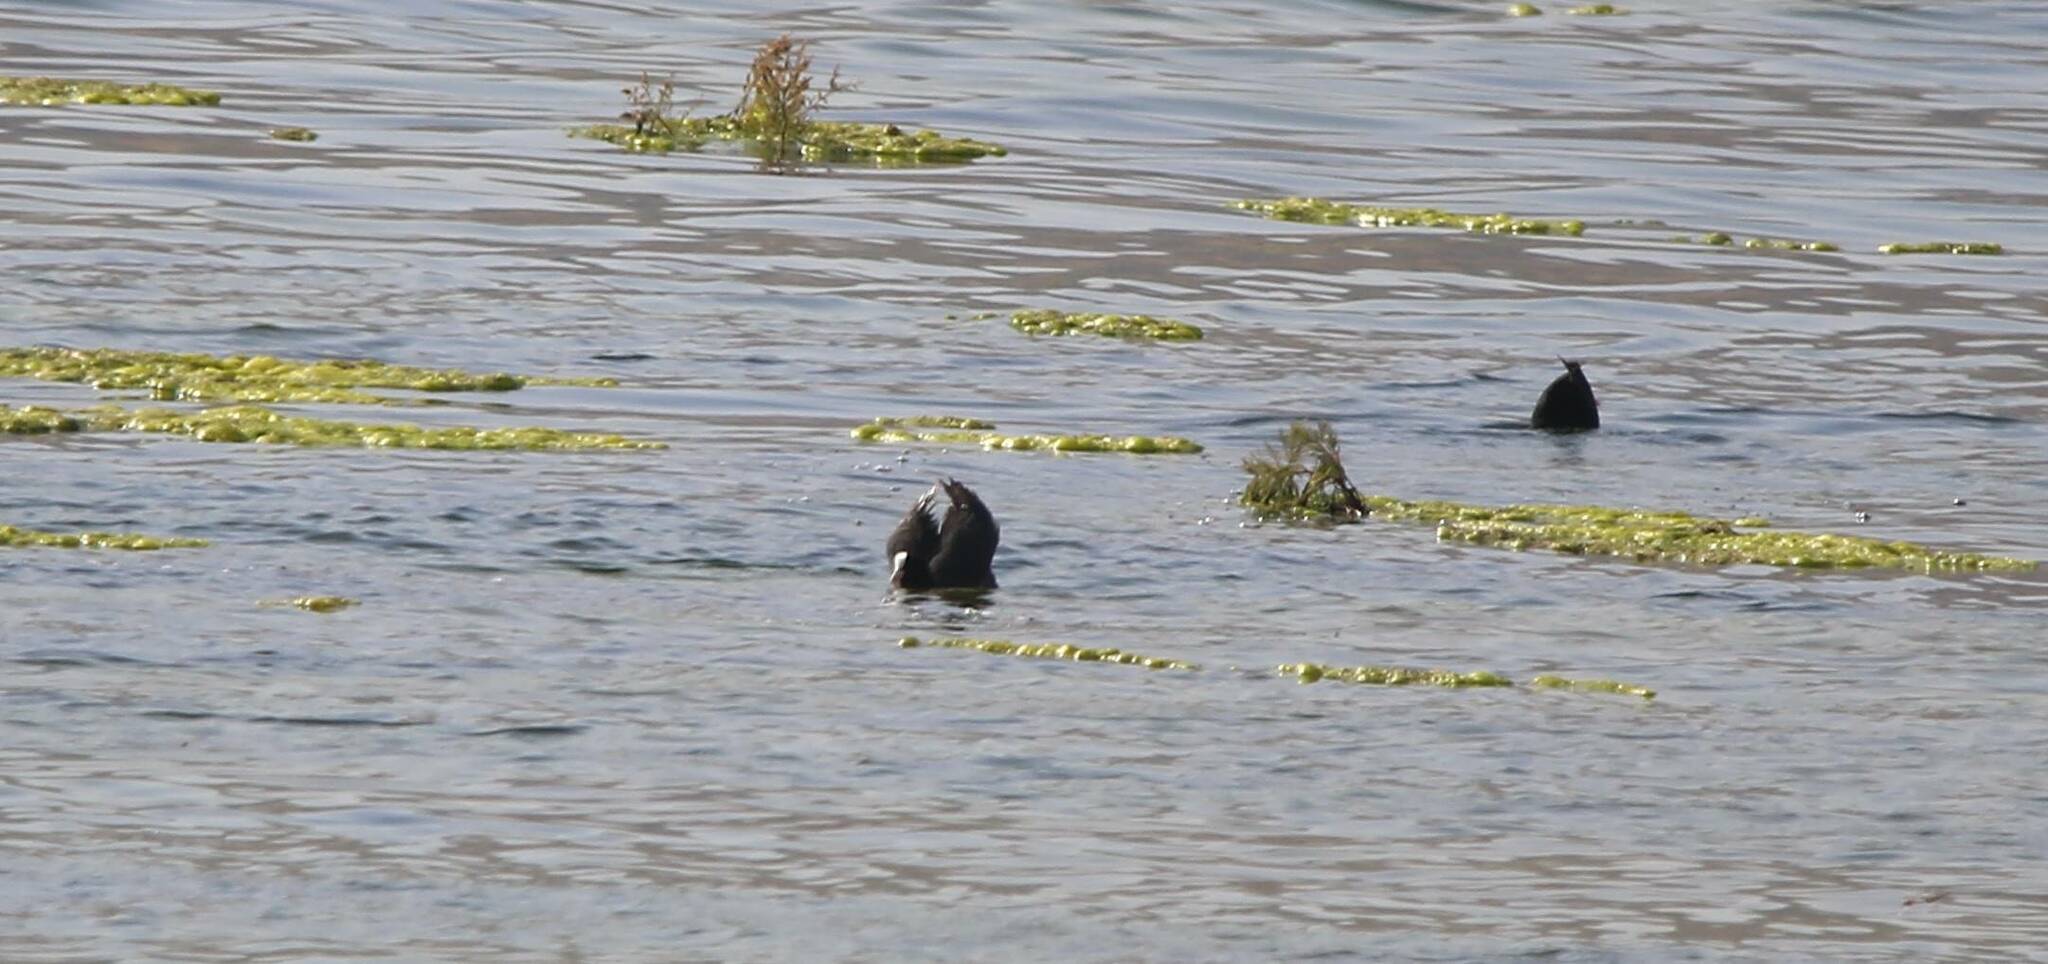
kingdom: Animalia
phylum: Chordata
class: Aves
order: Gruiformes
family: Rallidae
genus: Fulica
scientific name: Fulica atra
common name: Eurasian coot
